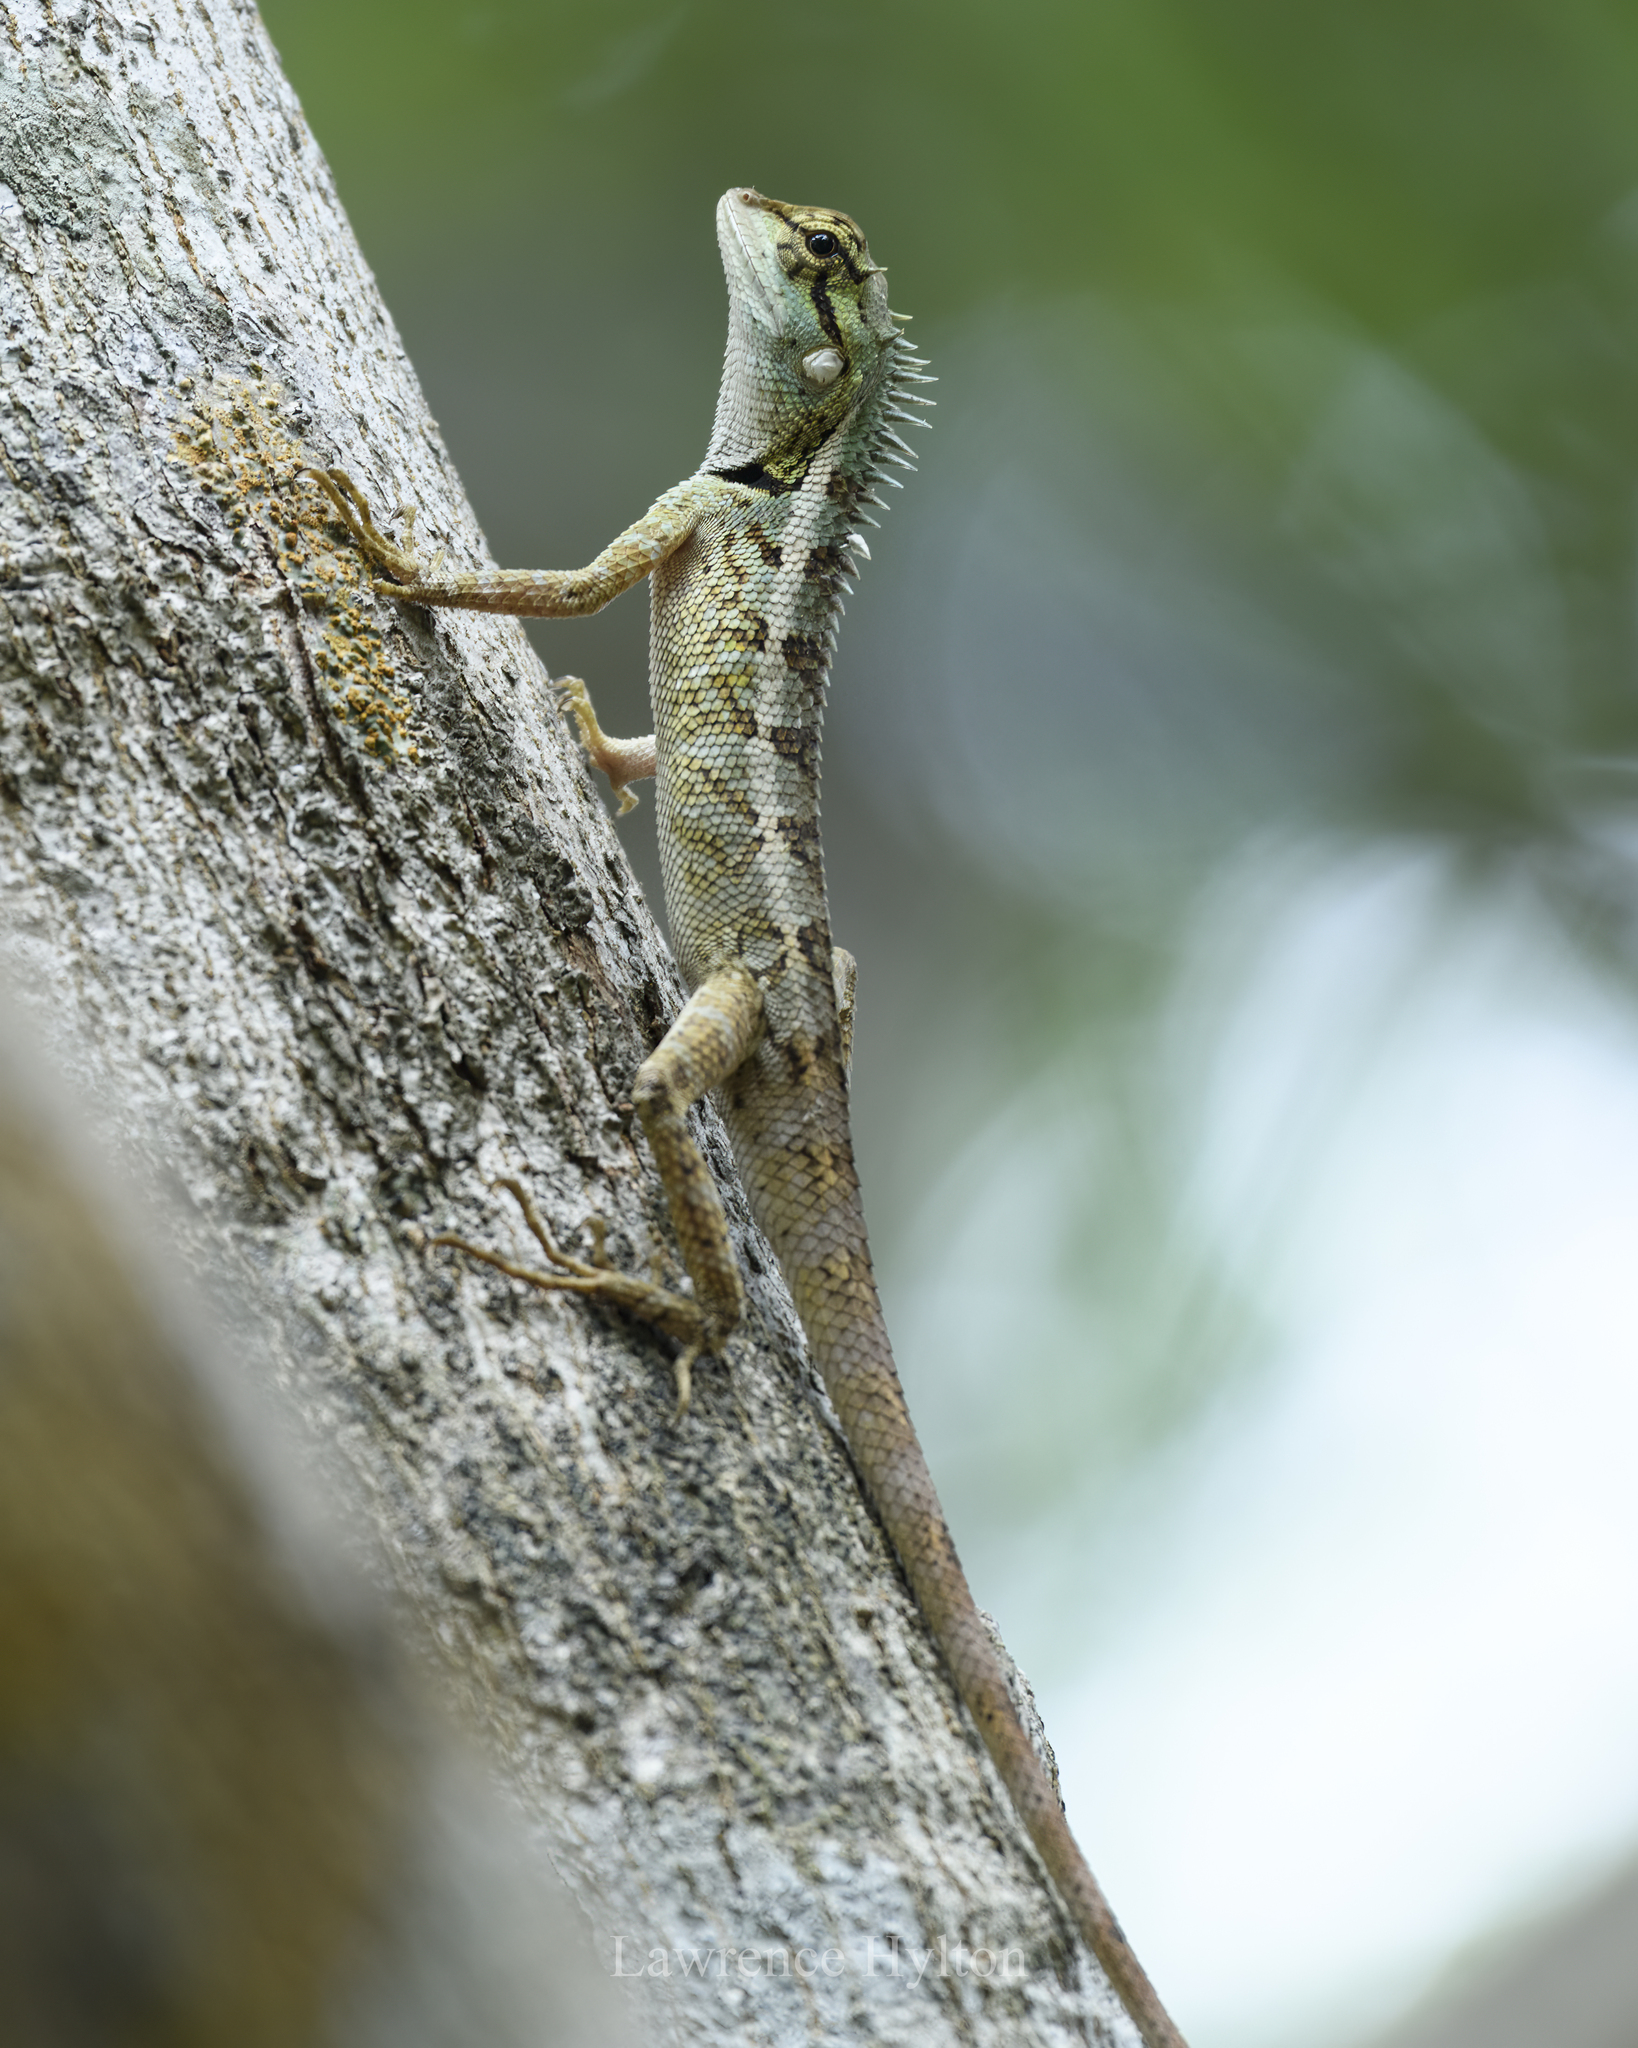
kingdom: Animalia
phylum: Chordata
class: Squamata
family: Agamidae
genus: Calotes
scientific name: Calotes emma
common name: Thailand bloodsucker
